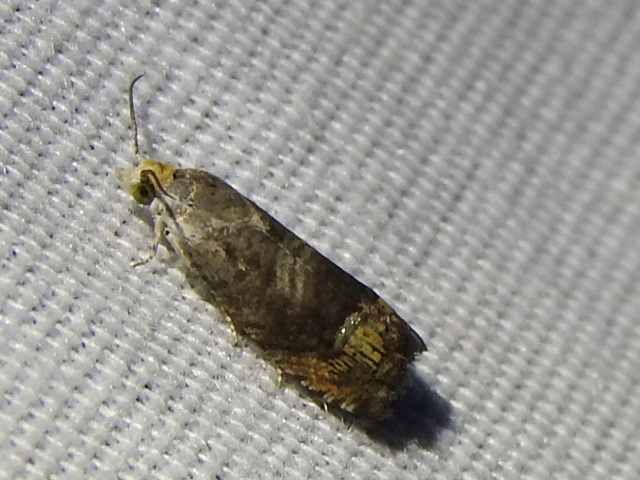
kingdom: Animalia
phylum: Arthropoda
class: Insecta
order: Lepidoptera
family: Tortricidae
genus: Ofatulena
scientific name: Ofatulena luminosa
